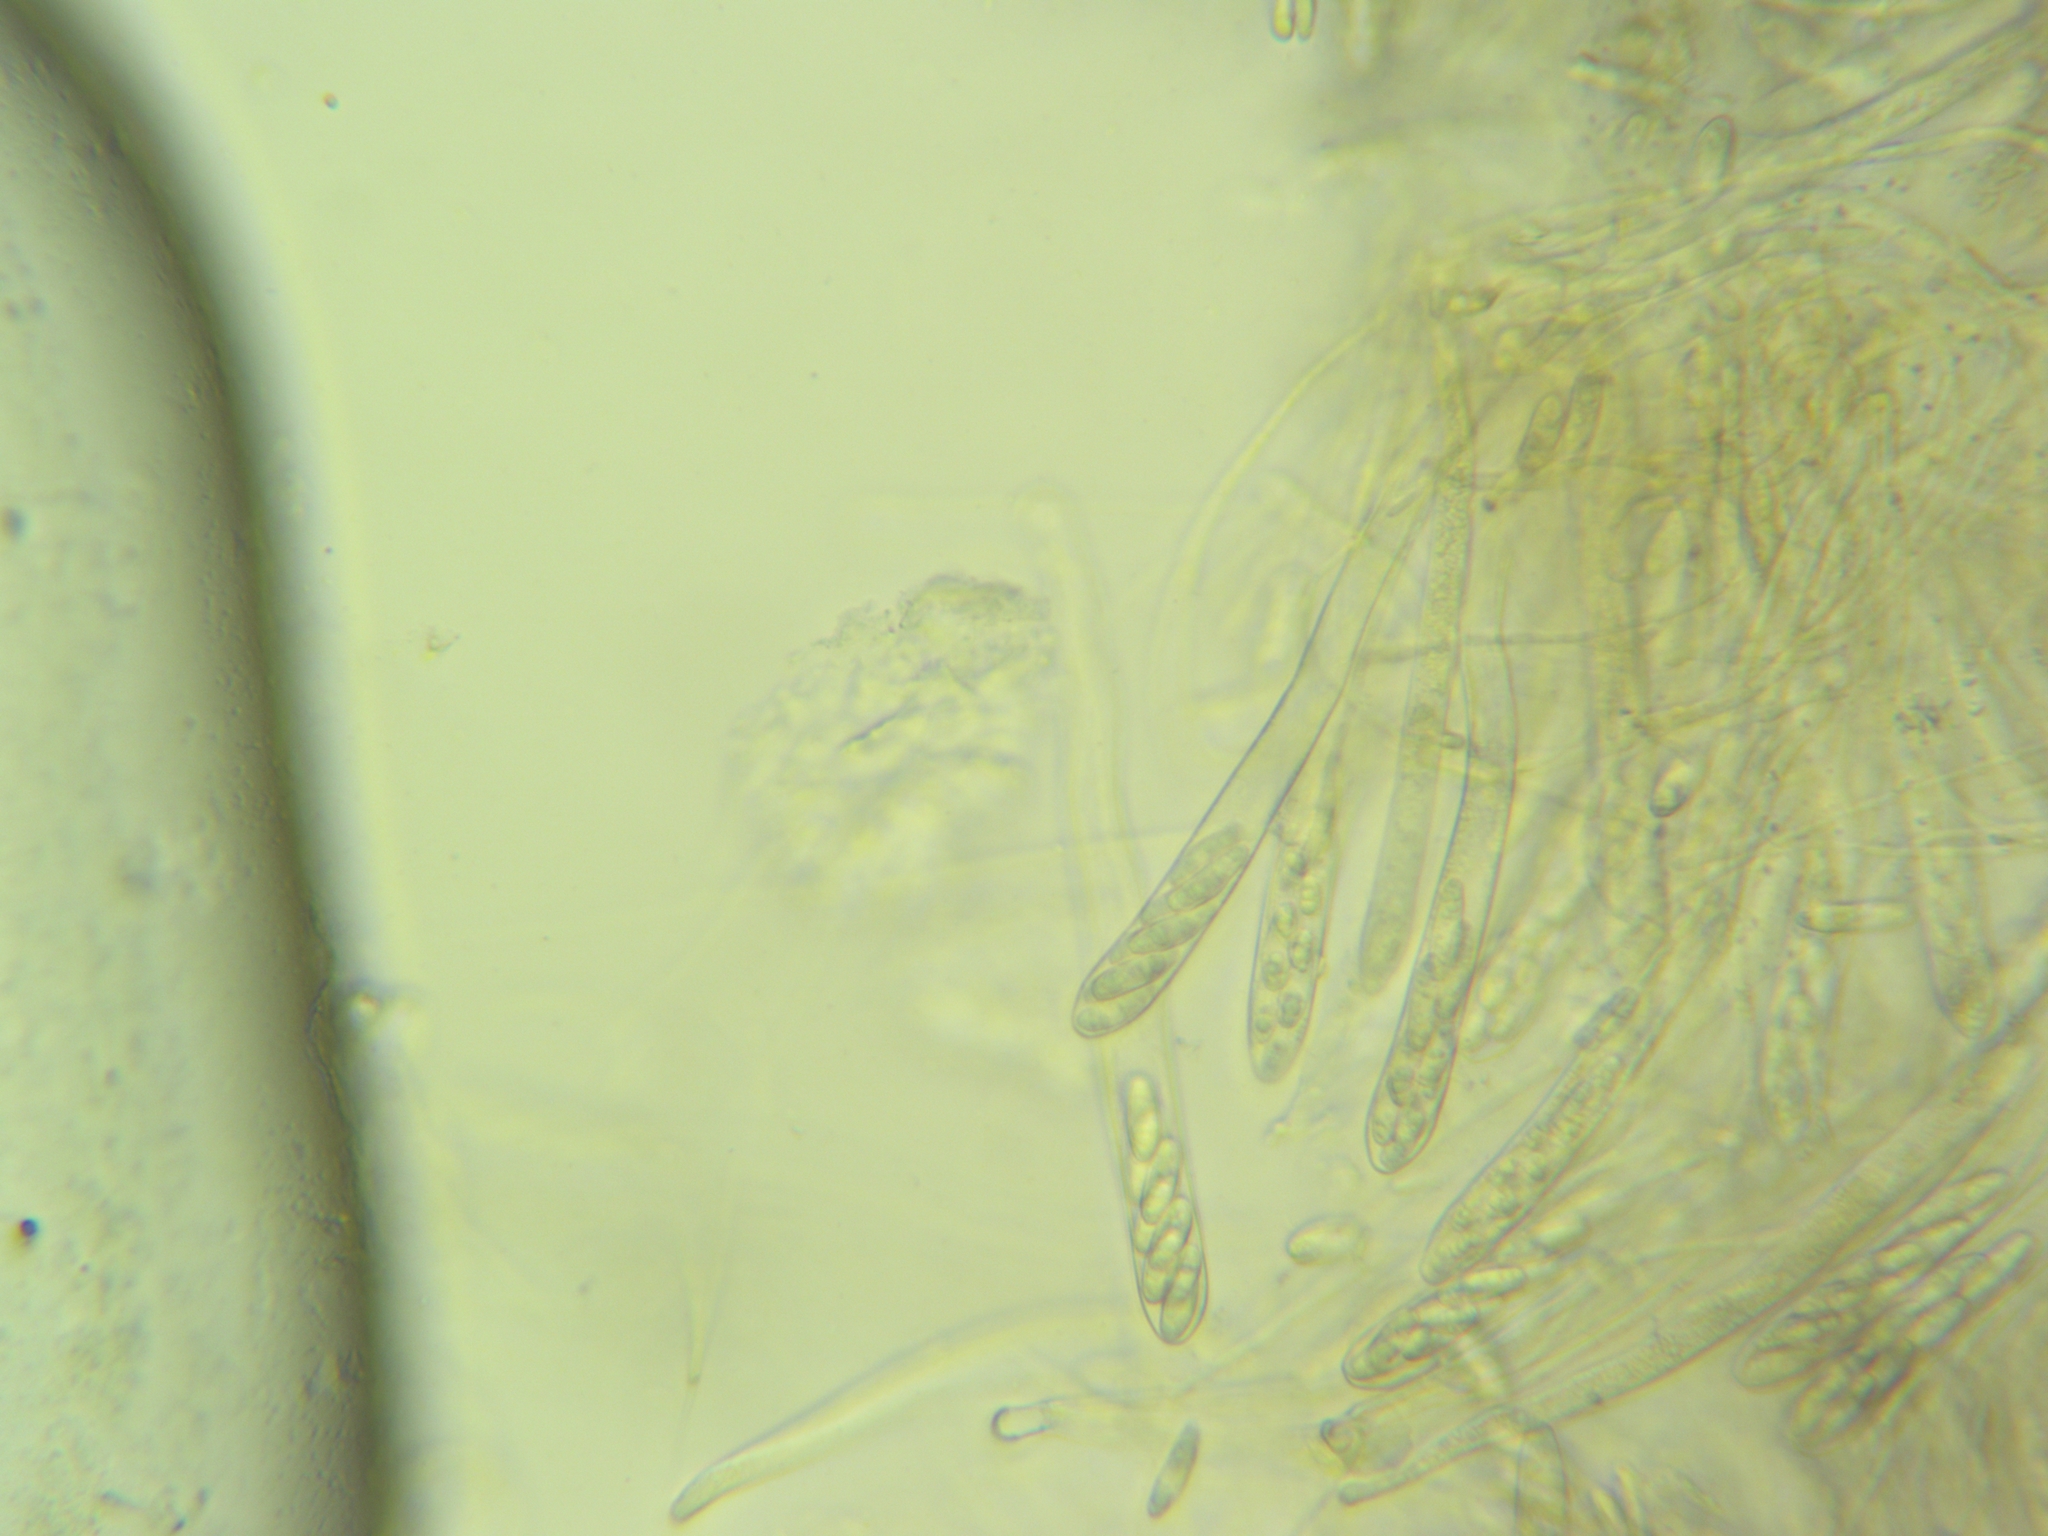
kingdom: Fungi
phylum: Ascomycota
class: Leotiomycetes
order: Helotiales
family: Pezizellaceae
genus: Calycina
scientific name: Calycina citrina
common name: Yellow fairy cups
